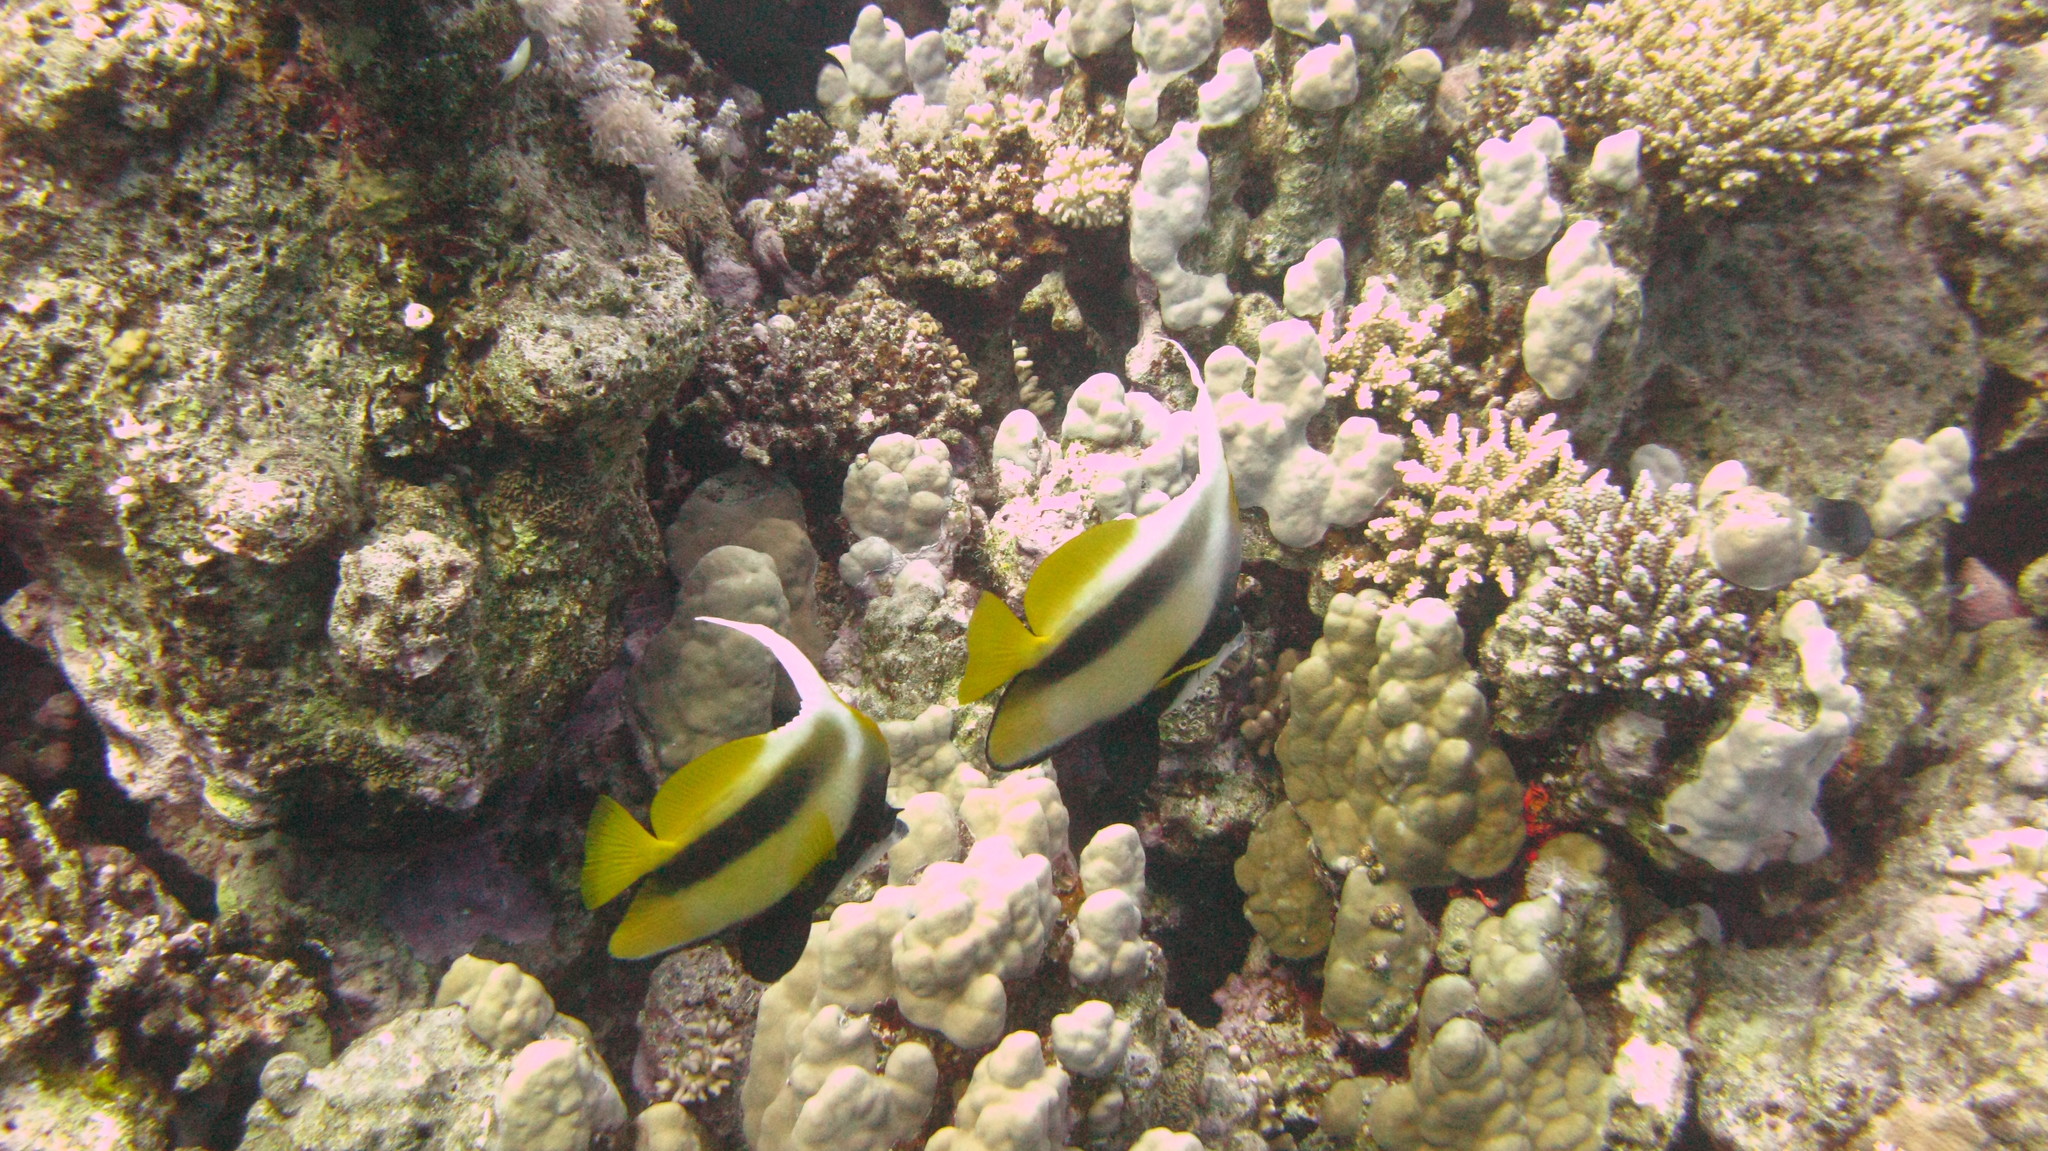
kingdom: Animalia
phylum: Chordata
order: Perciformes
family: Chaetodontidae
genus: Heniochus
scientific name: Heniochus intermedius
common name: Red sea bannerfish
